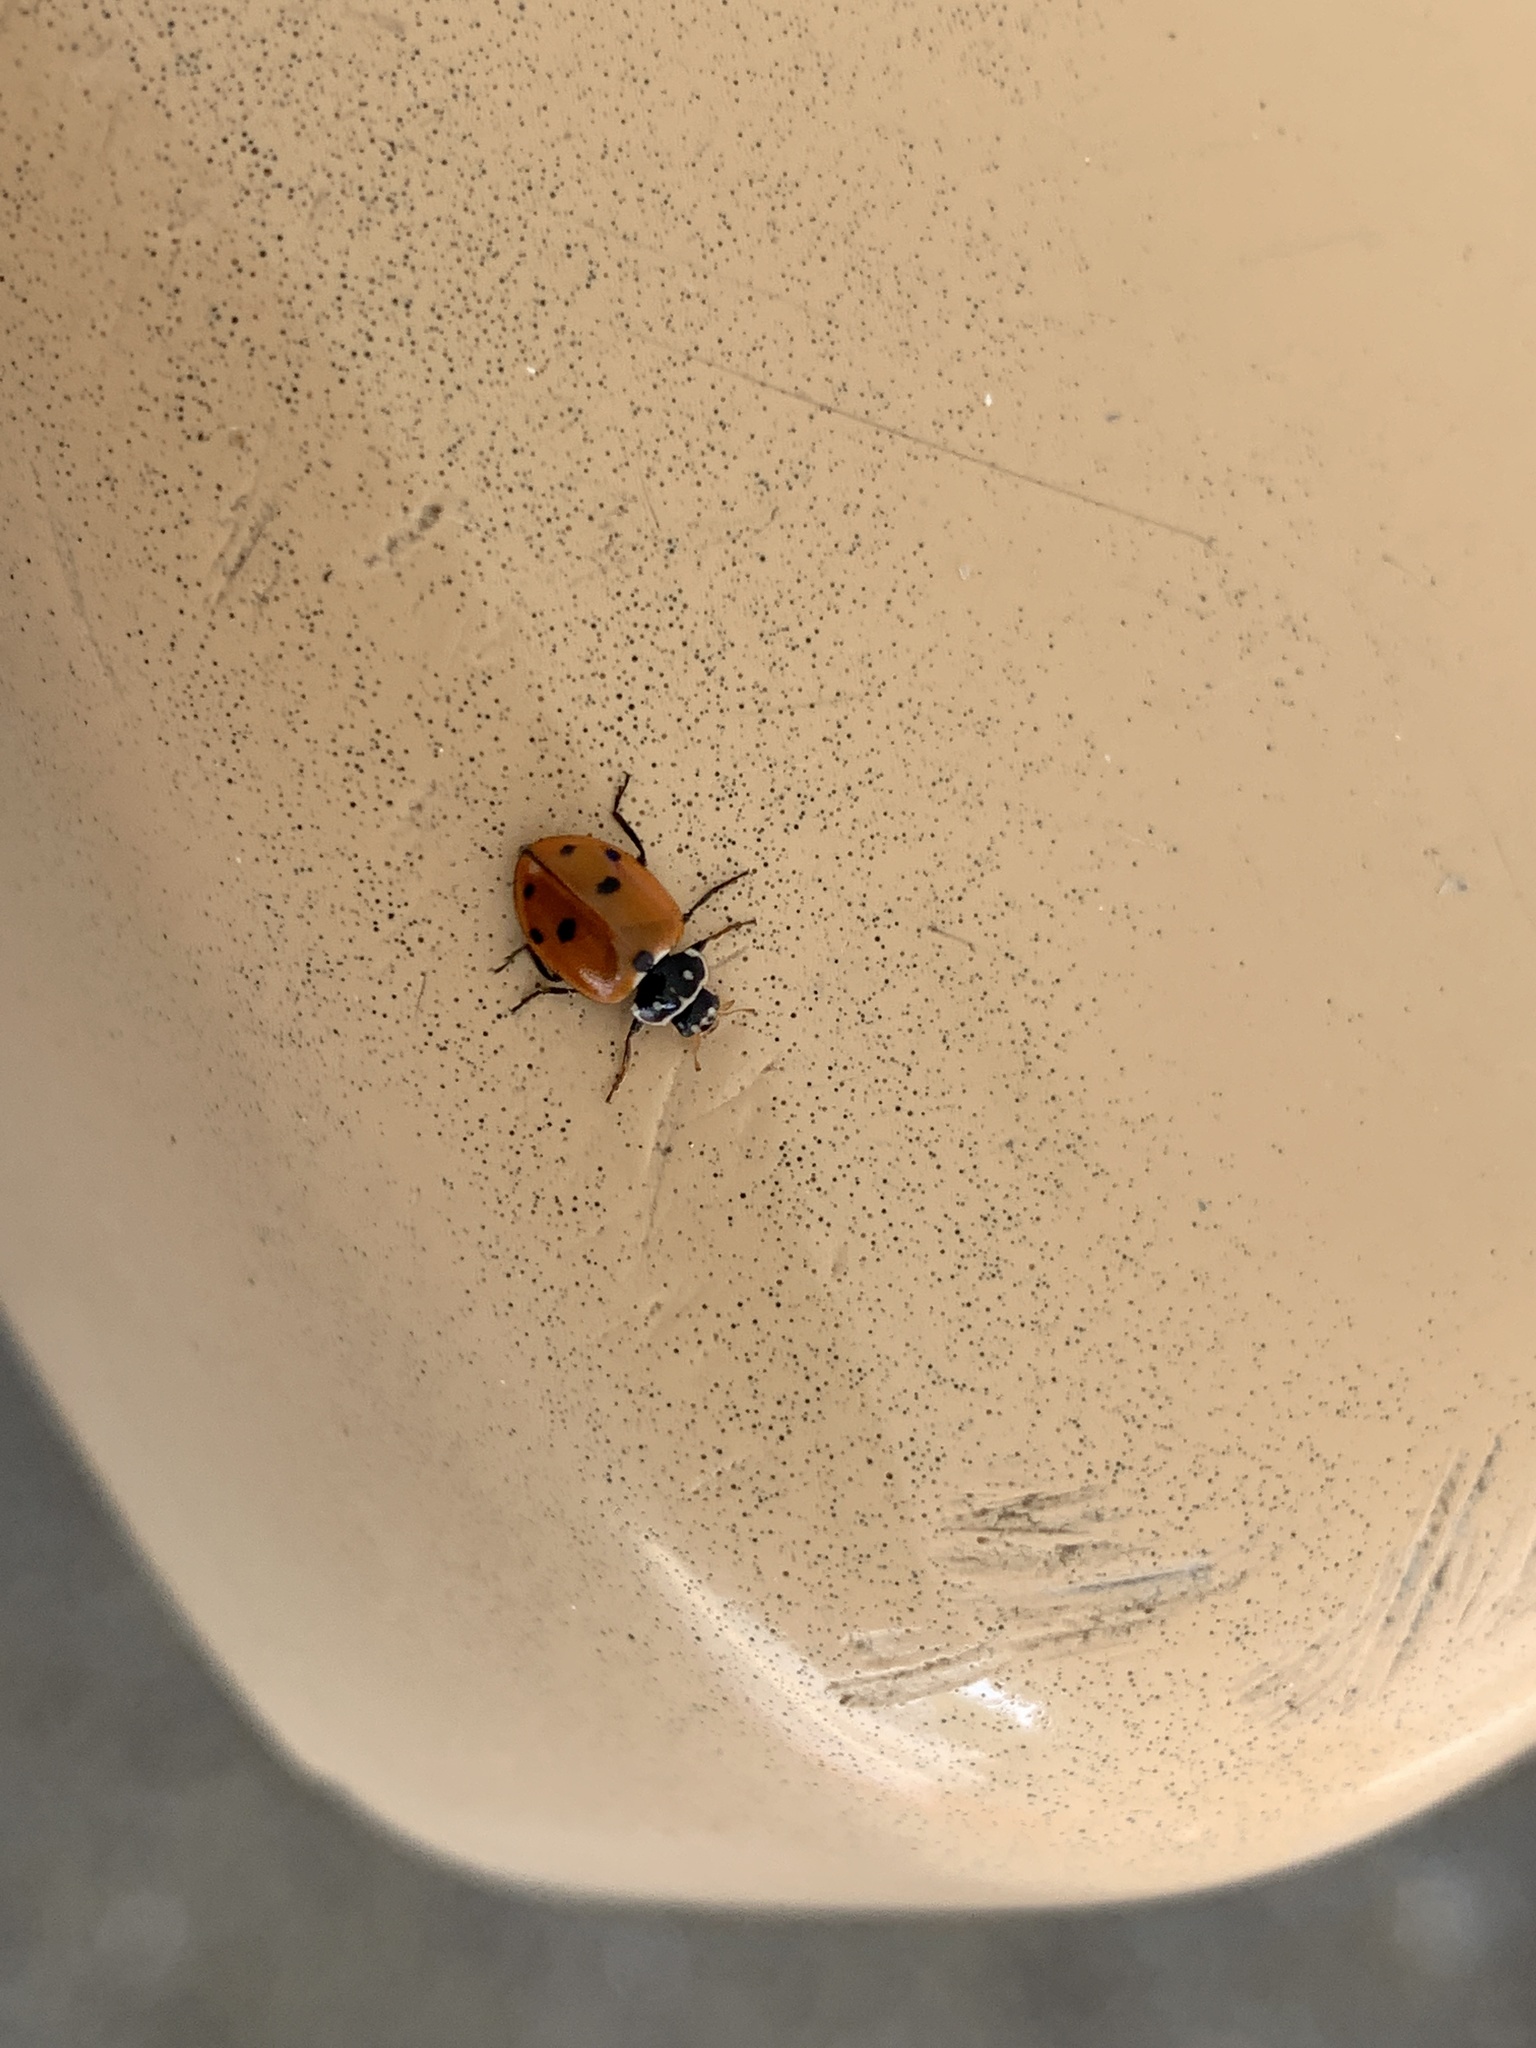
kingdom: Animalia
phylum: Arthropoda
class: Insecta
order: Coleoptera
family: Coccinellidae
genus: Hippodamia
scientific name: Hippodamia variegata
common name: Ladybird beetle
